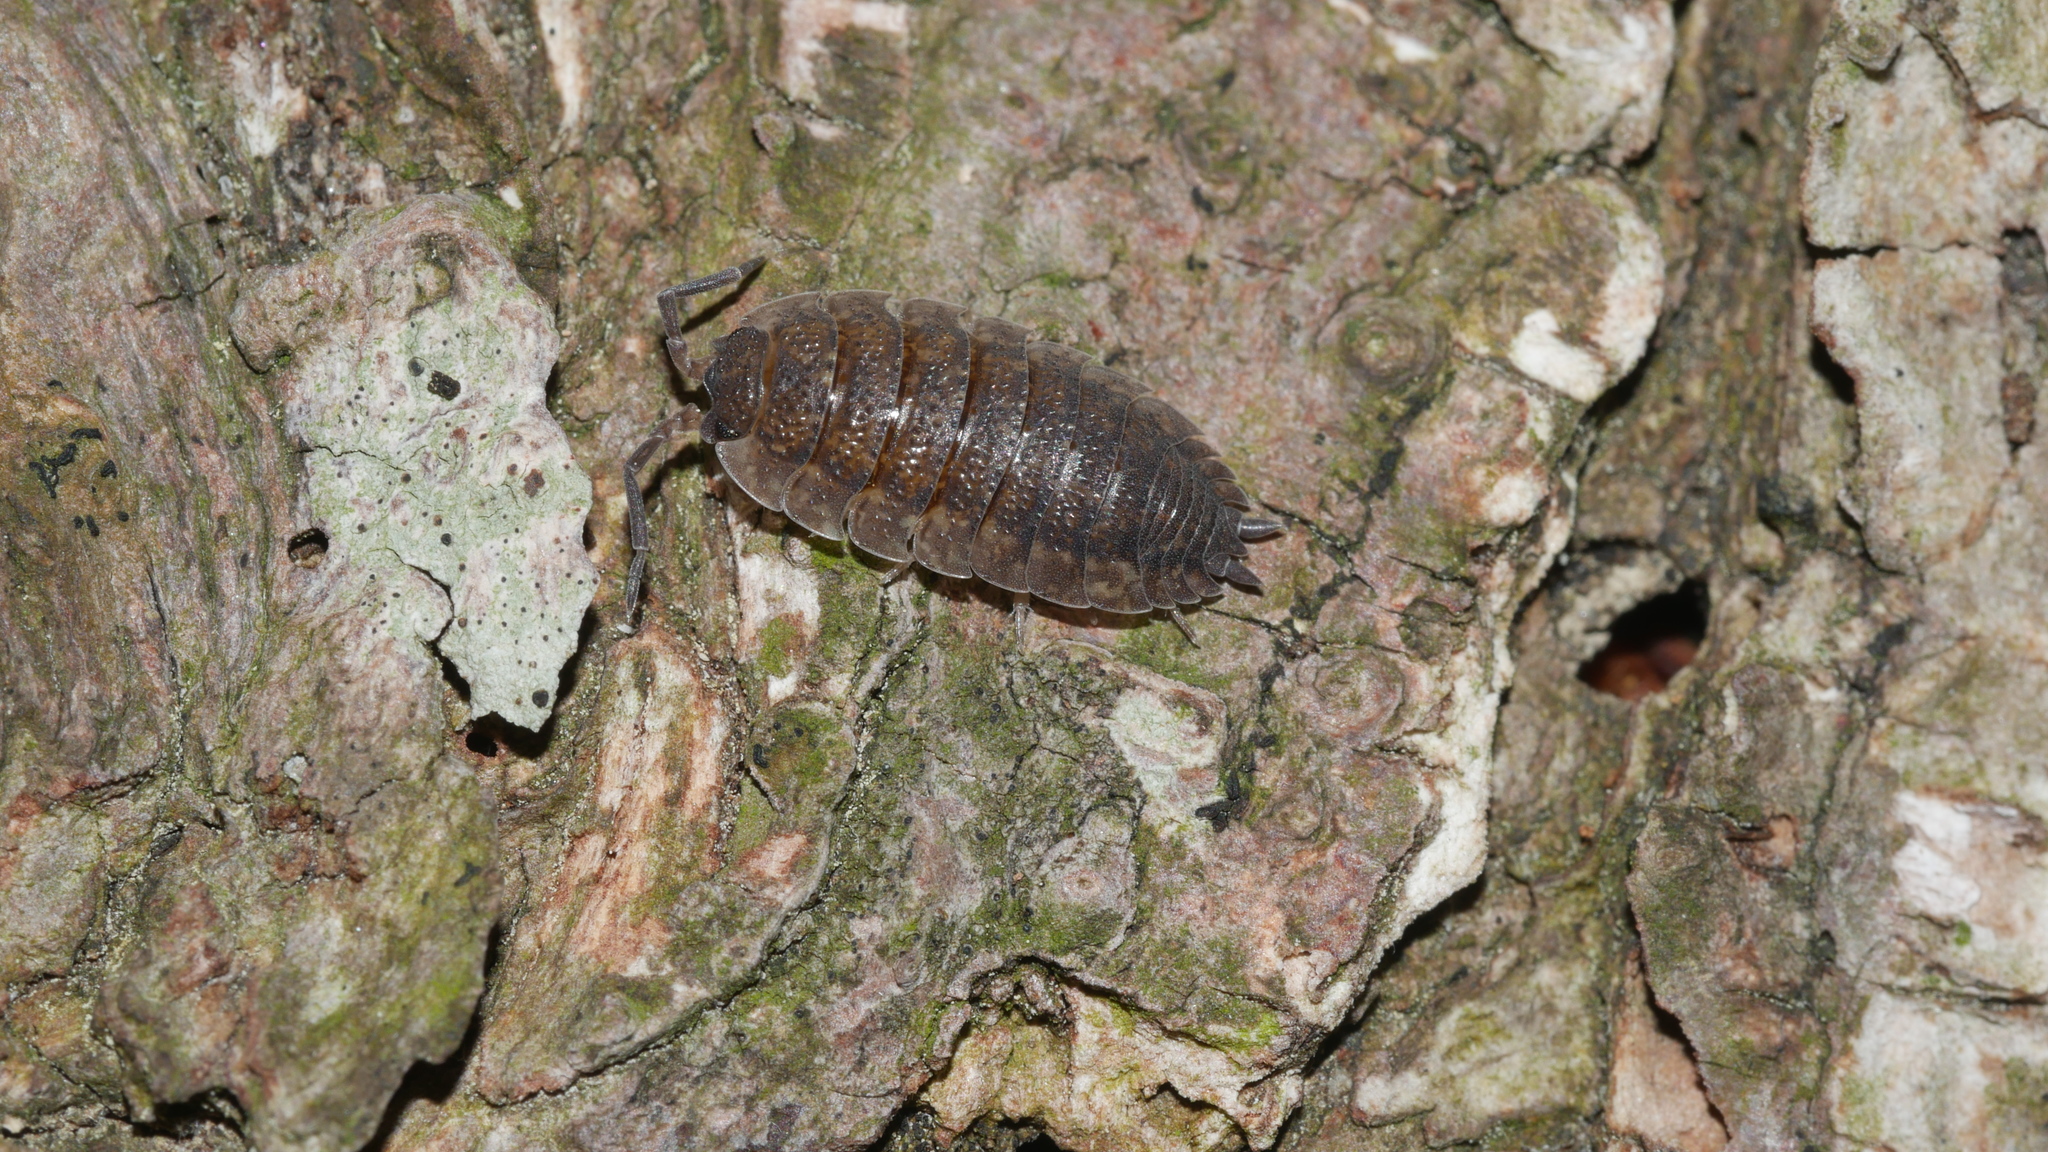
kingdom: Animalia
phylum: Arthropoda
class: Malacostraca
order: Isopoda
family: Porcellionidae
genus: Porcellio
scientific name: Porcellio scaber
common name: Common rough woodlouse
